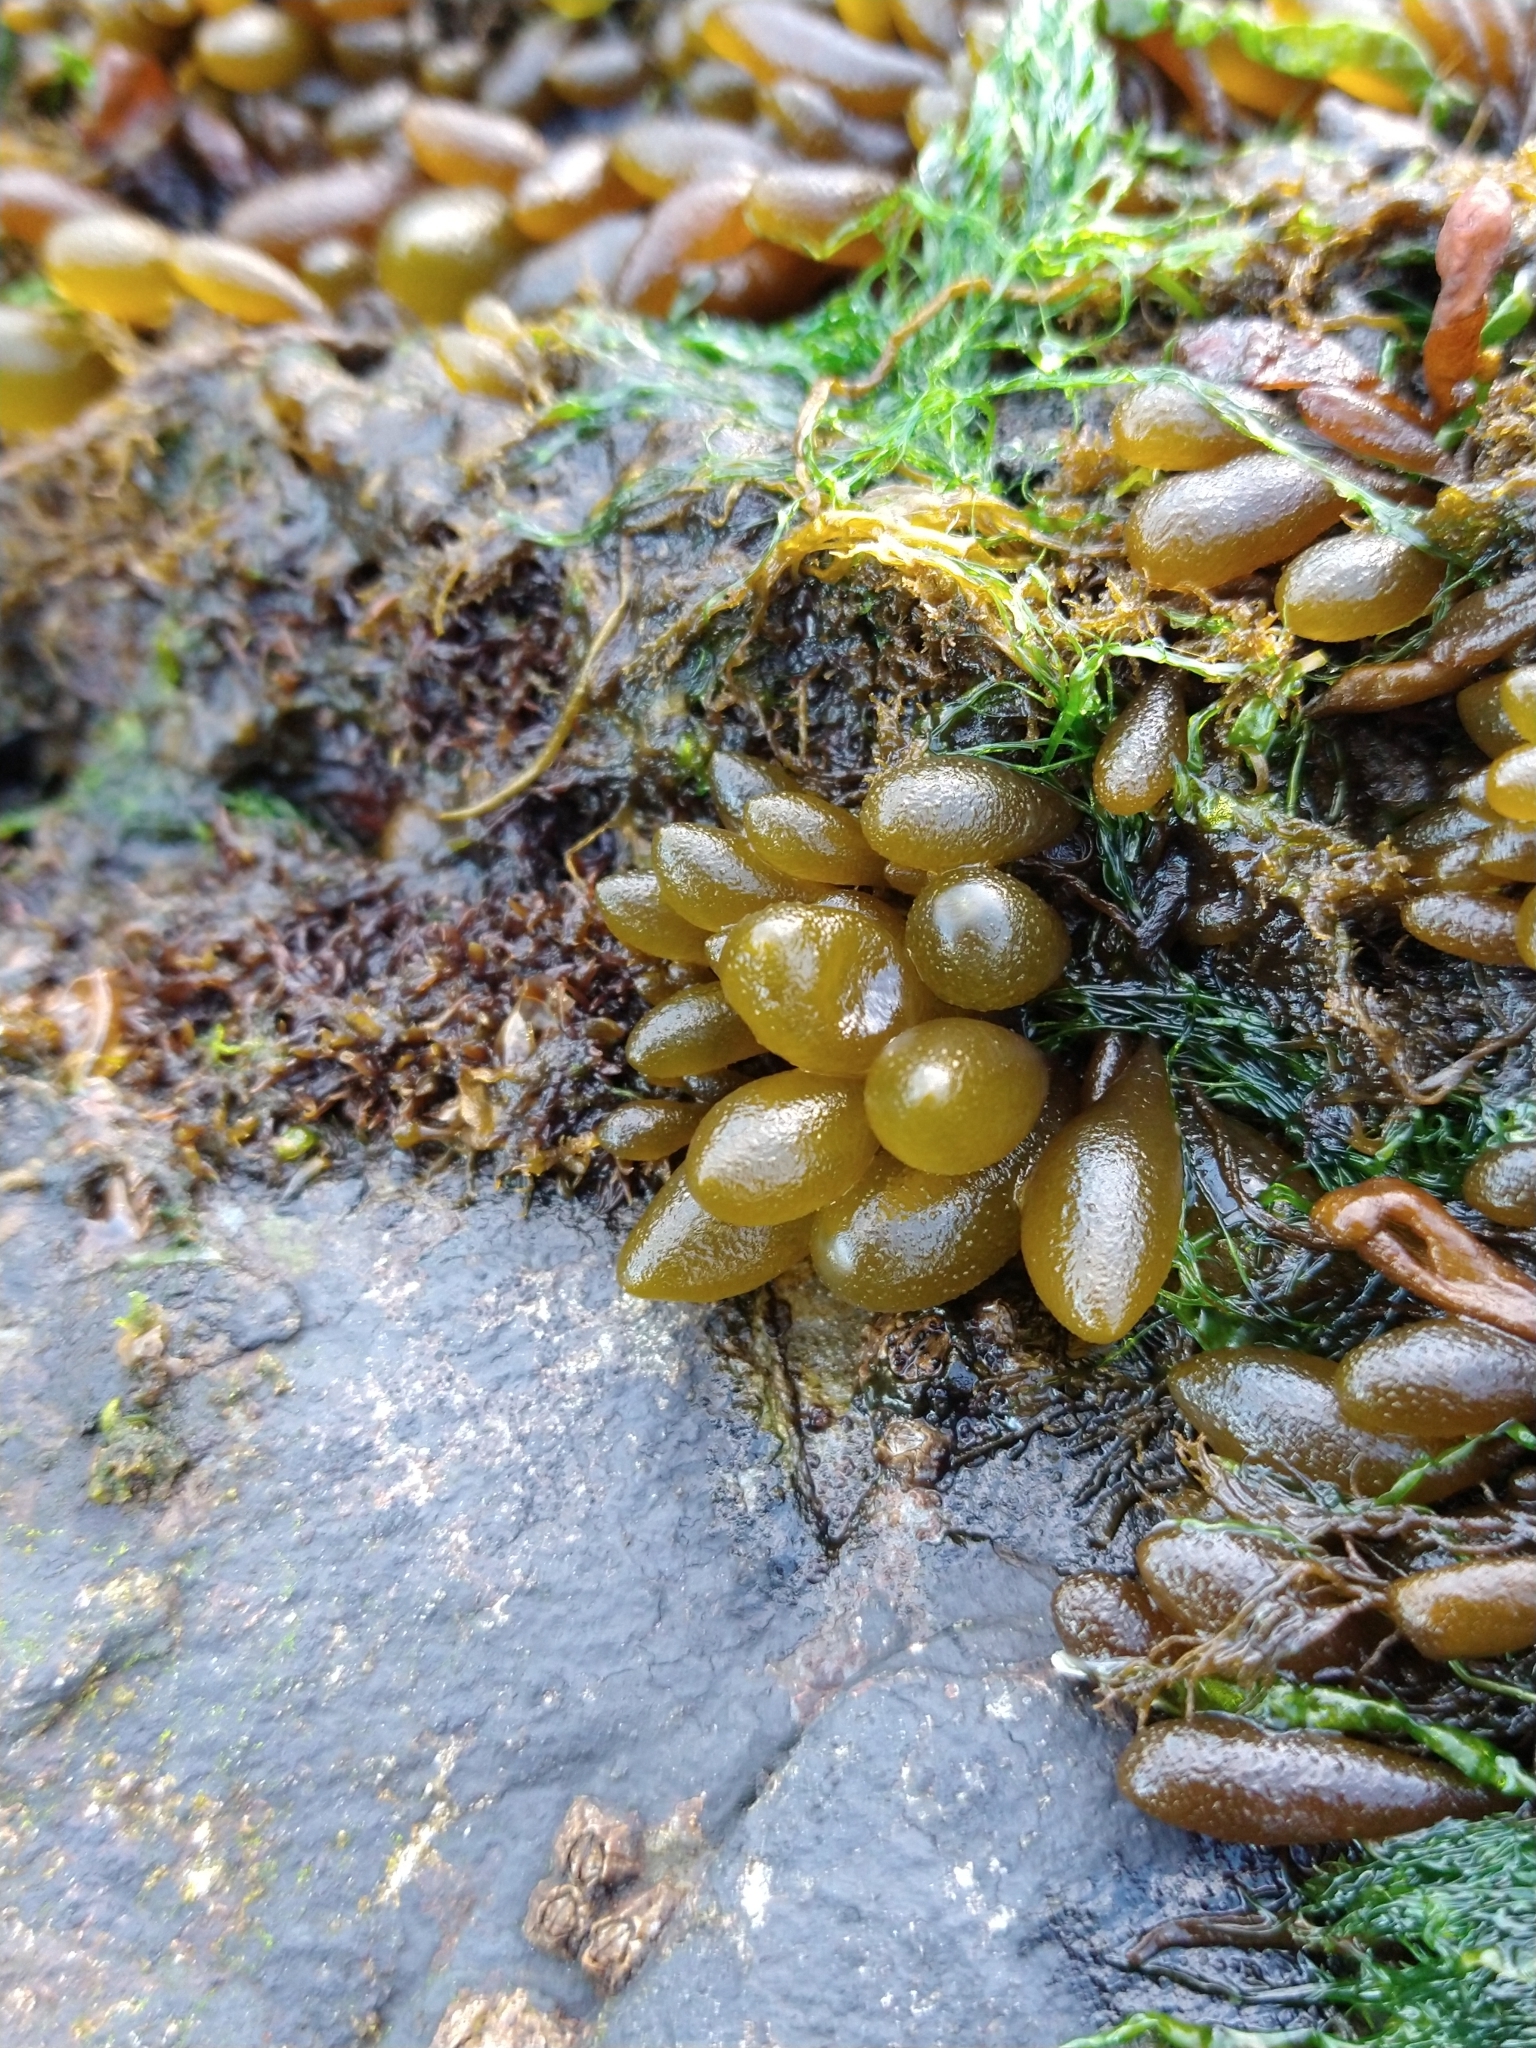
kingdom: Chromista
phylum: Ochrophyta
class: Phaeophyceae
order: Ectocarpales
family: Adenocystaceae
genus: Adenocystis
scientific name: Adenocystis utricularis
